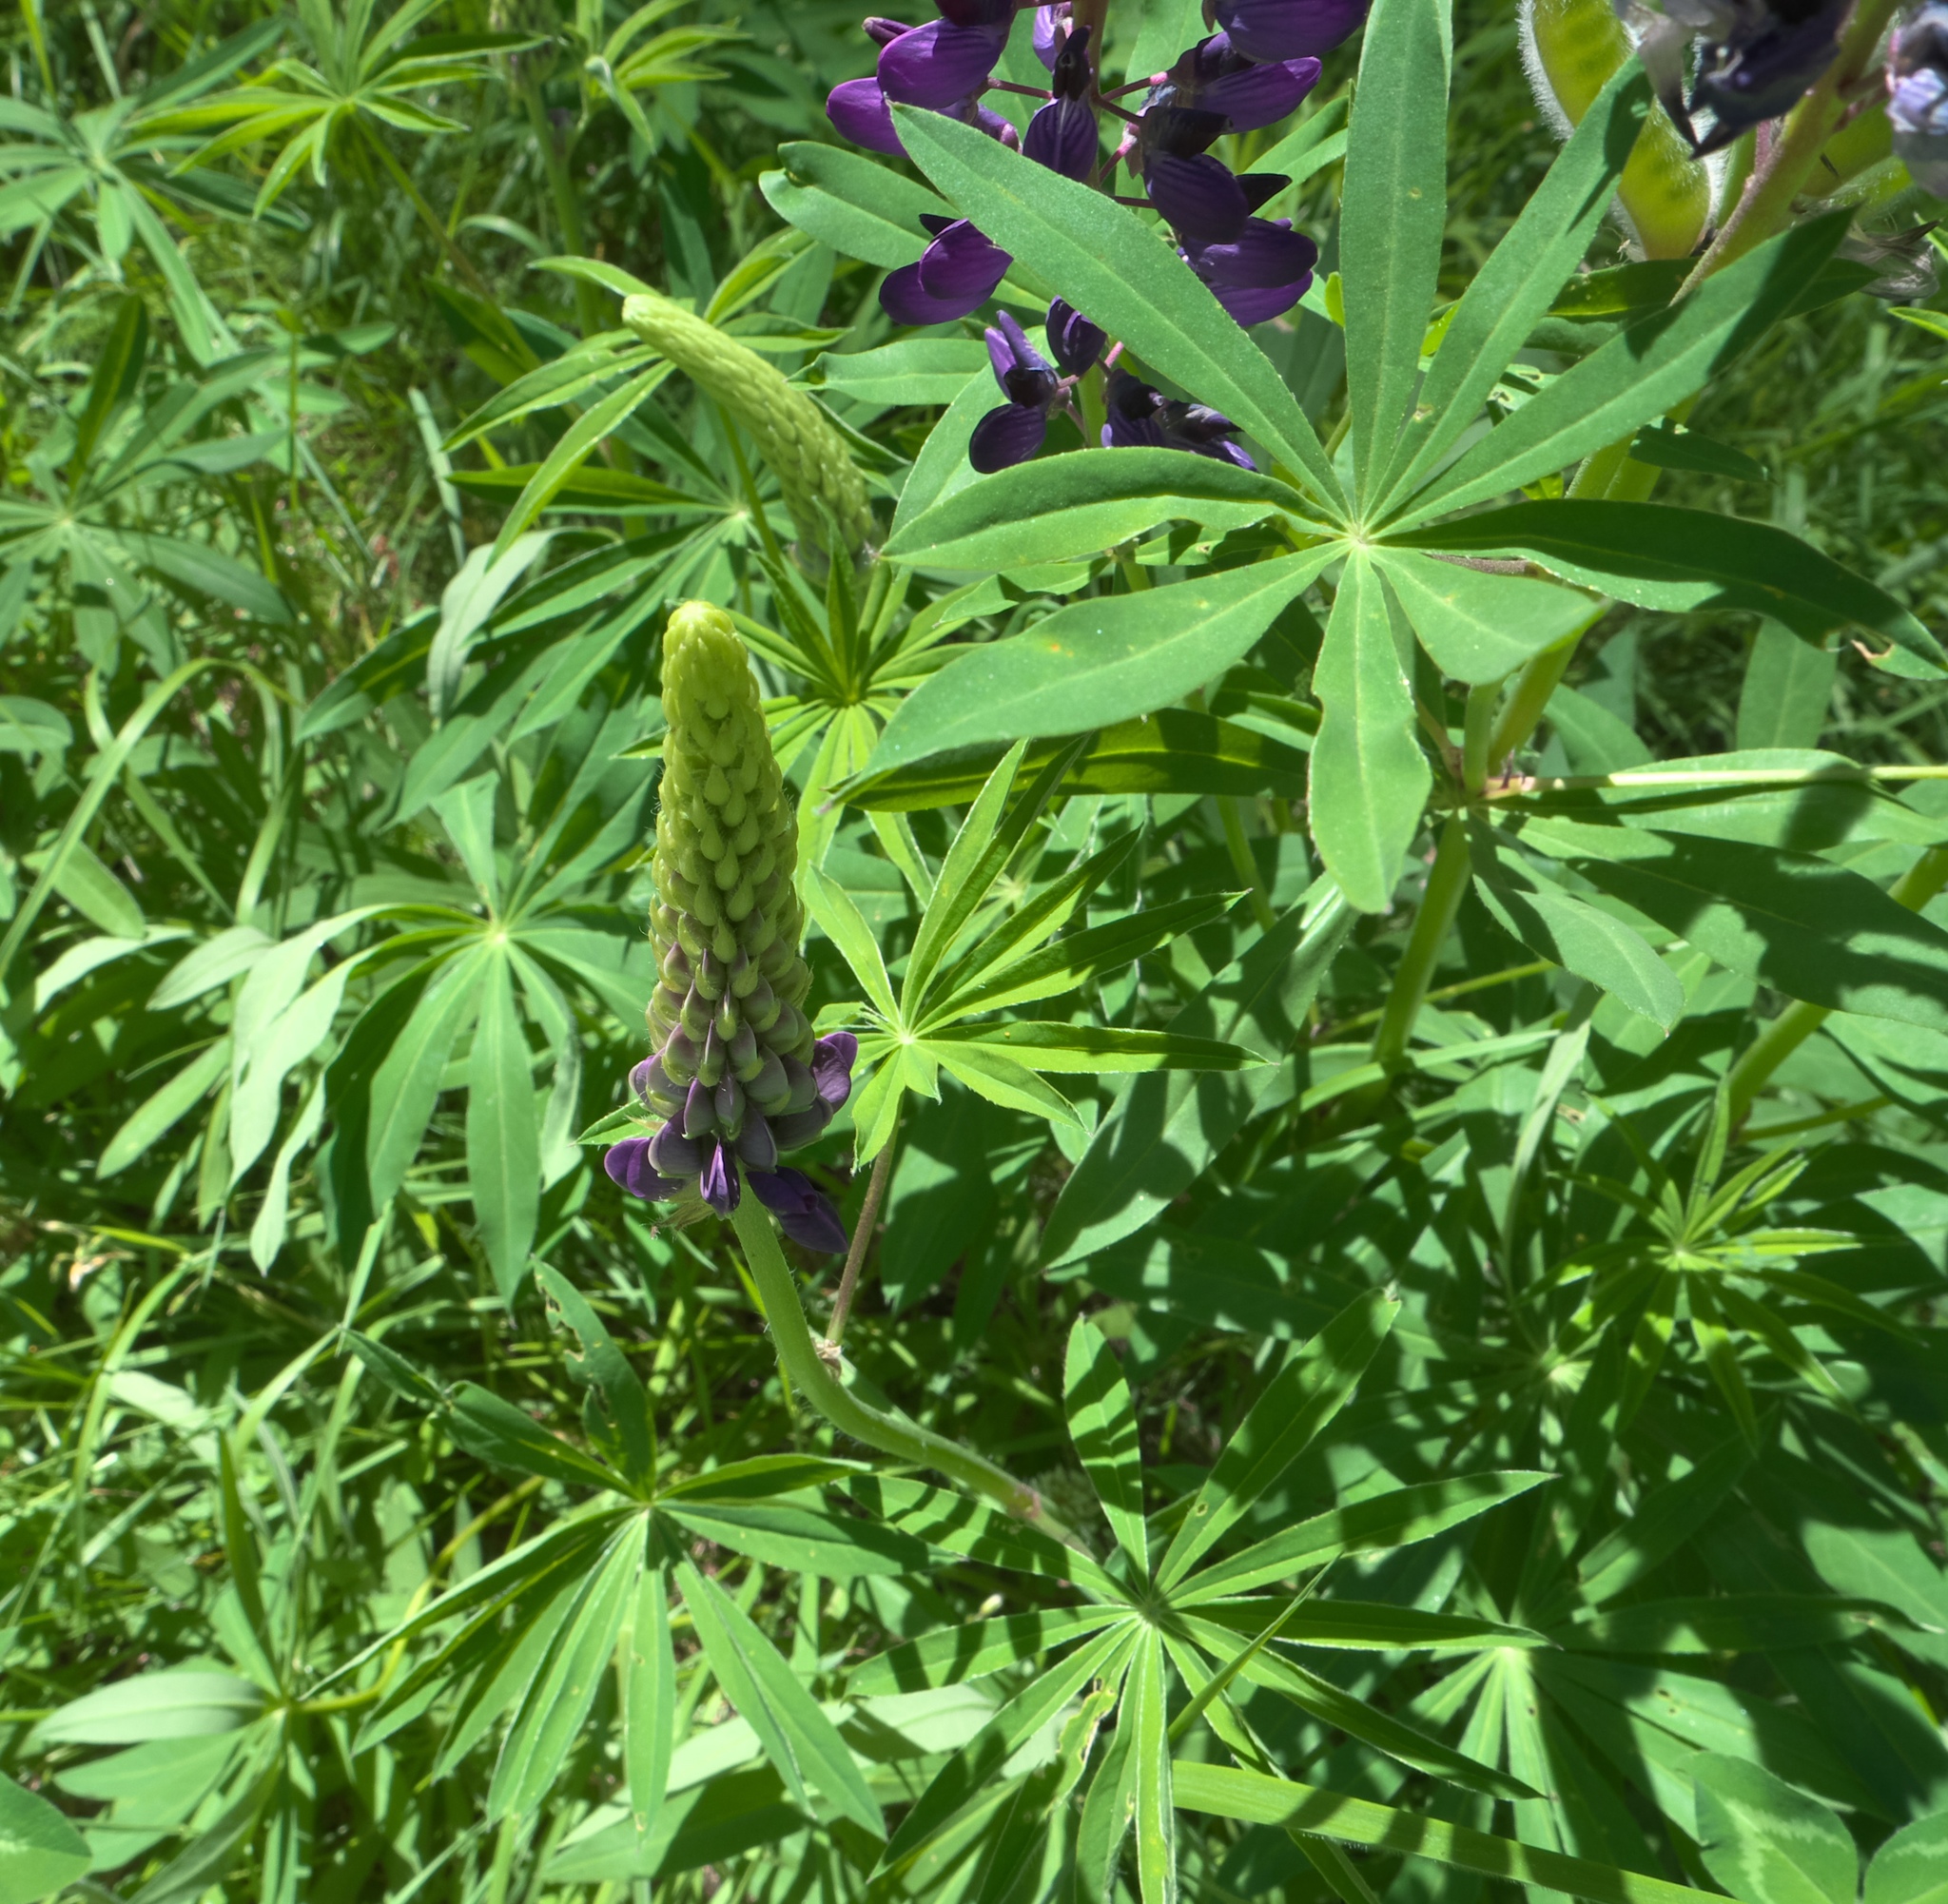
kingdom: Plantae
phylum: Tracheophyta
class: Magnoliopsida
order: Fabales
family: Fabaceae
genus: Lupinus
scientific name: Lupinus polyphyllus
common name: Garden lupin
